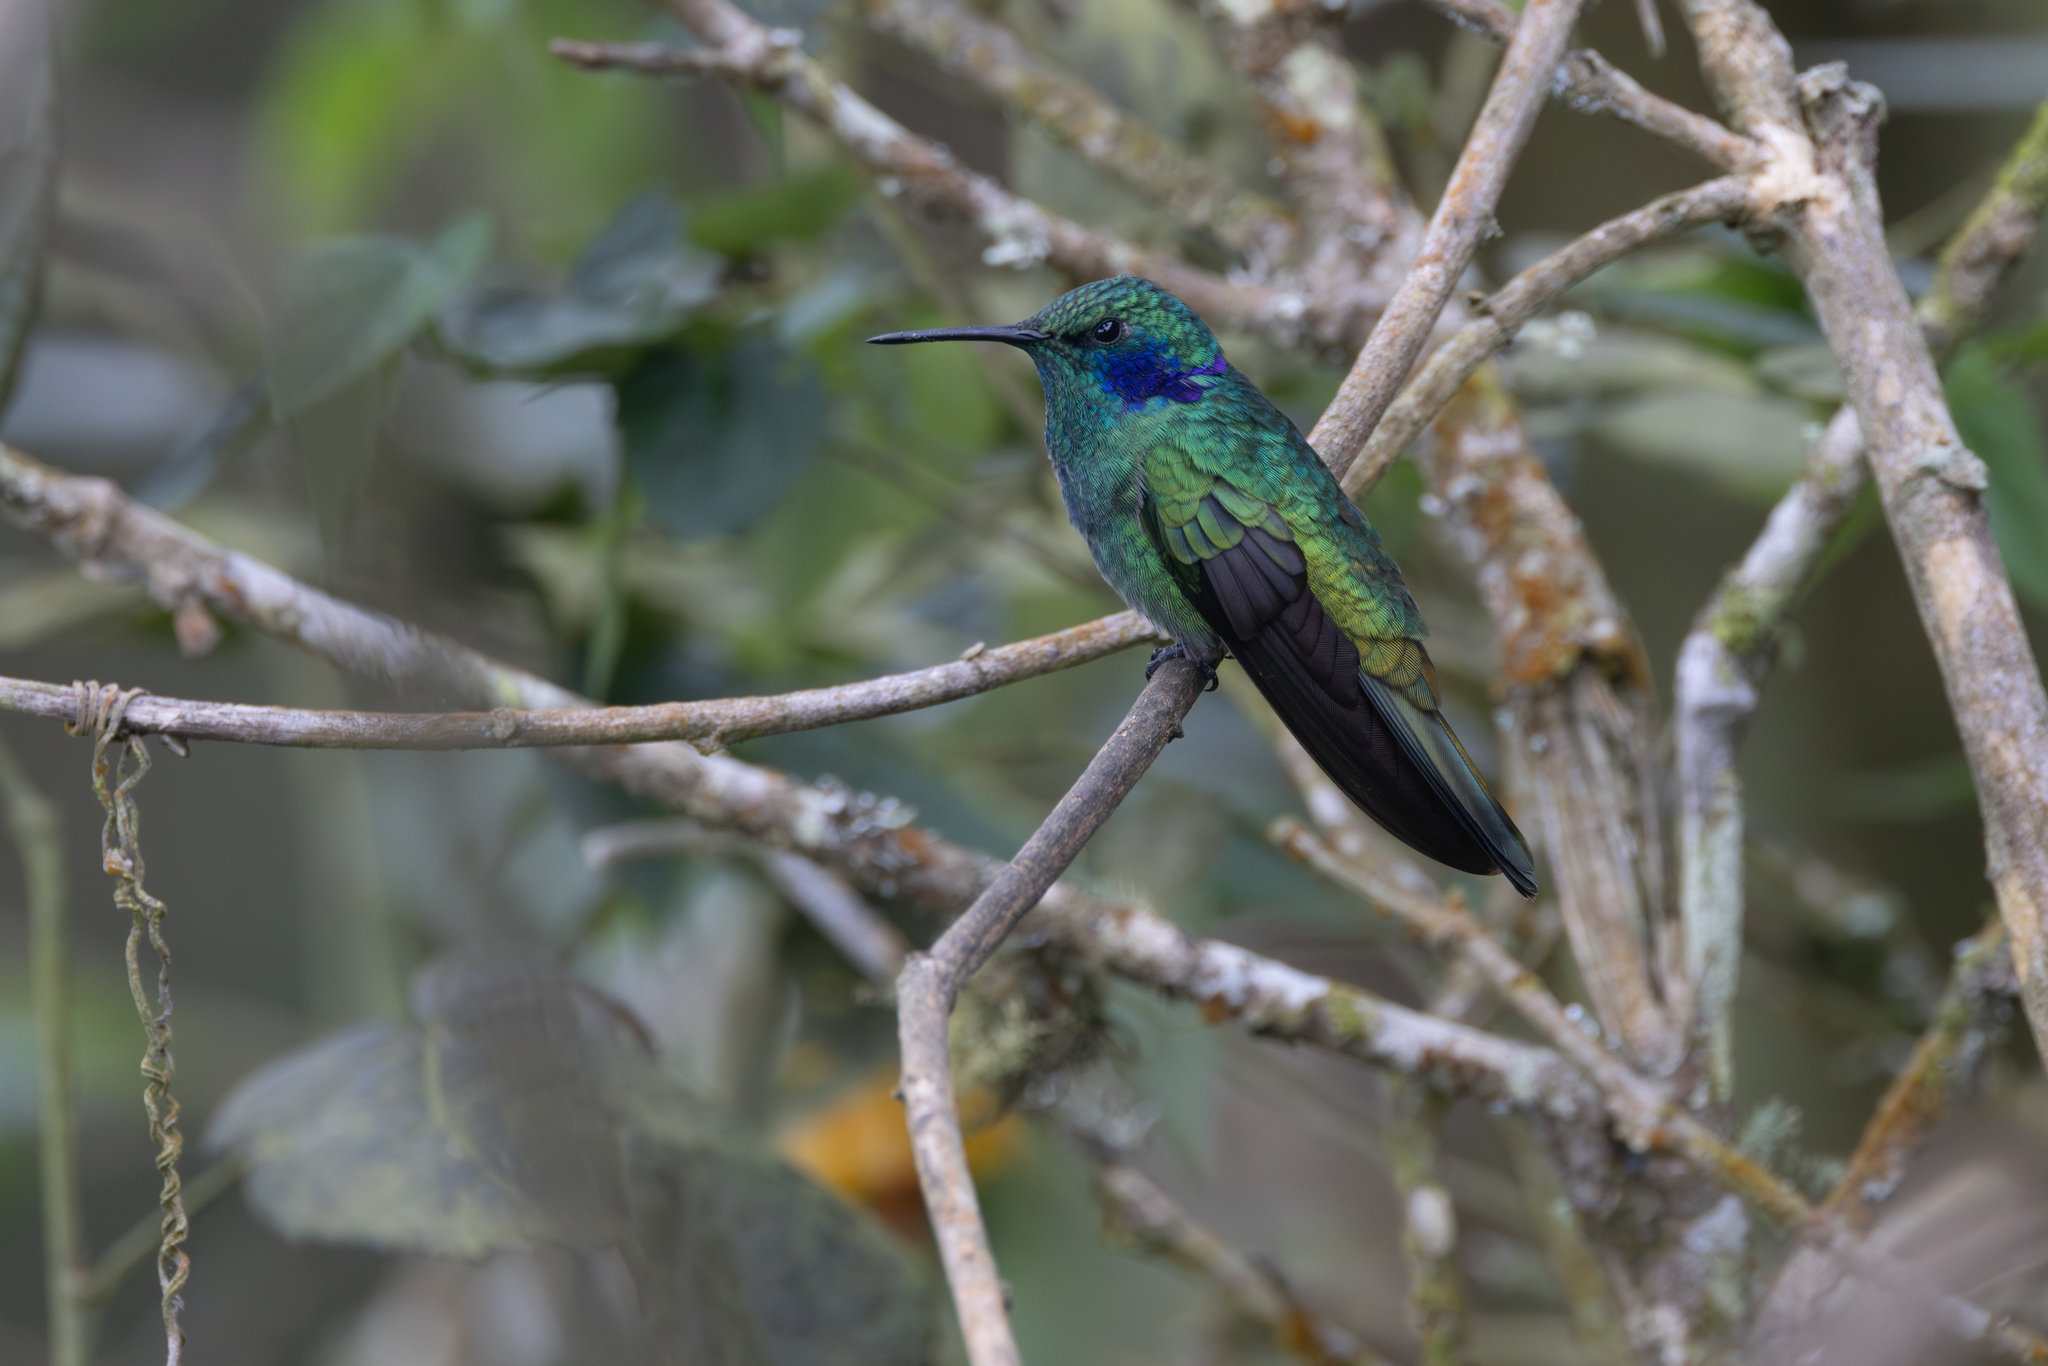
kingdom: Animalia
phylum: Chordata
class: Aves
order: Apodiformes
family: Trochilidae
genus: Colibri
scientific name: Colibri cyanotus
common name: Lesser violetear
